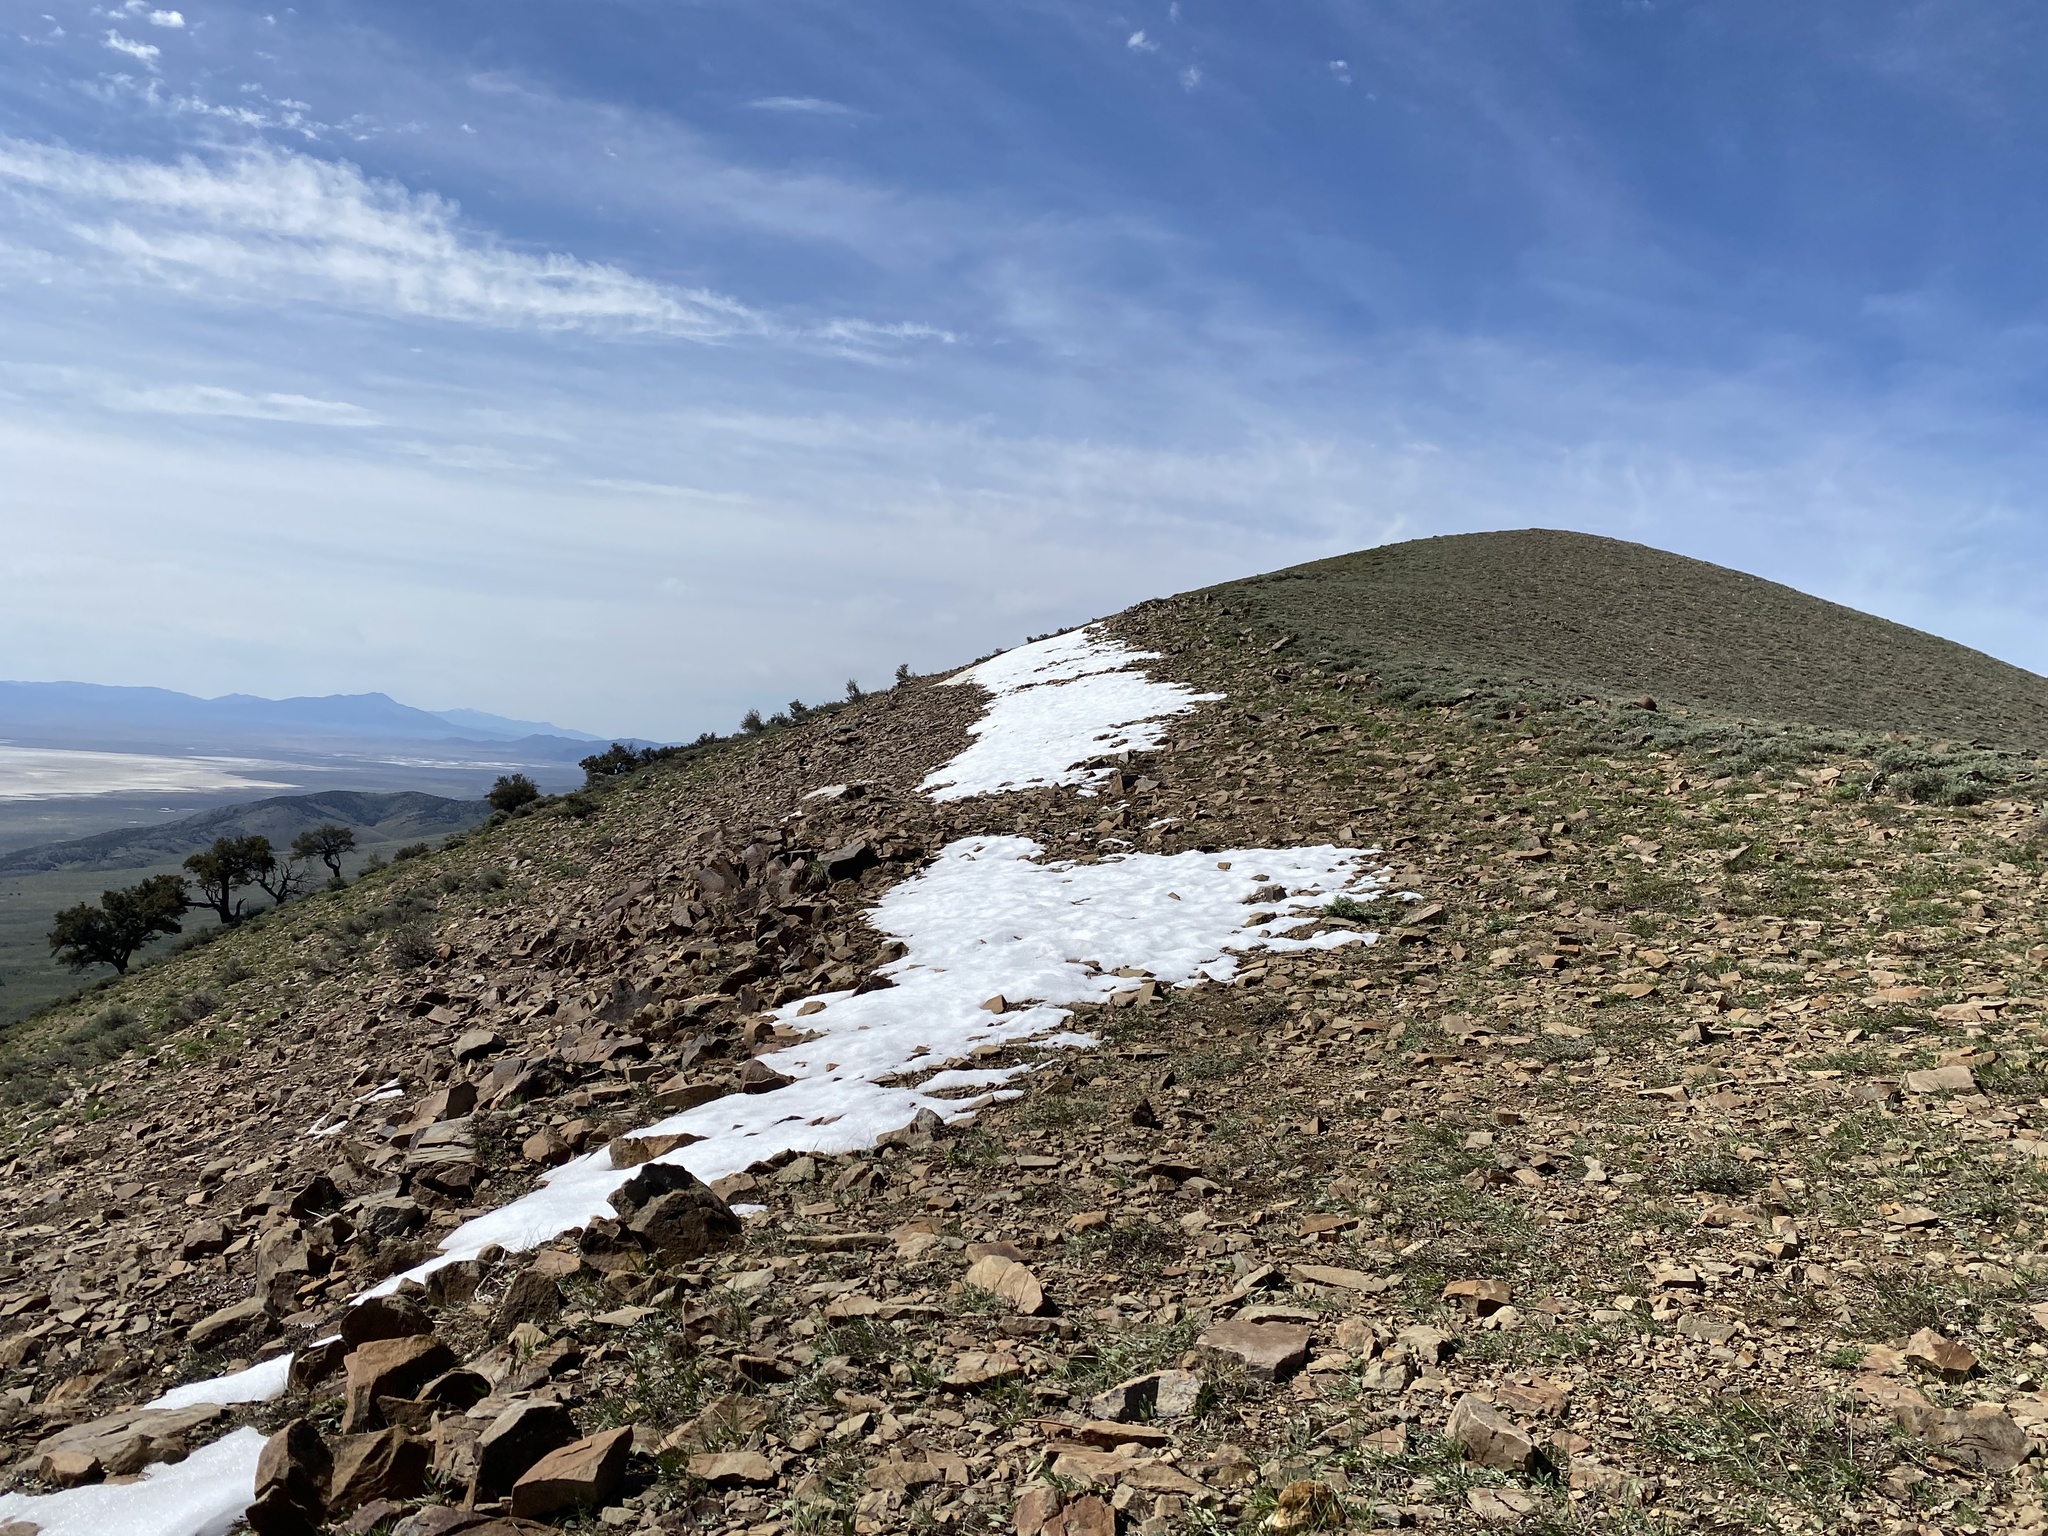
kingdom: Plantae
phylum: Tracheophyta
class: Magnoliopsida
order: Caryophyllales
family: Montiaceae
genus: Claytonia
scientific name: Claytonia lanceolata
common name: Western spring-beauty
